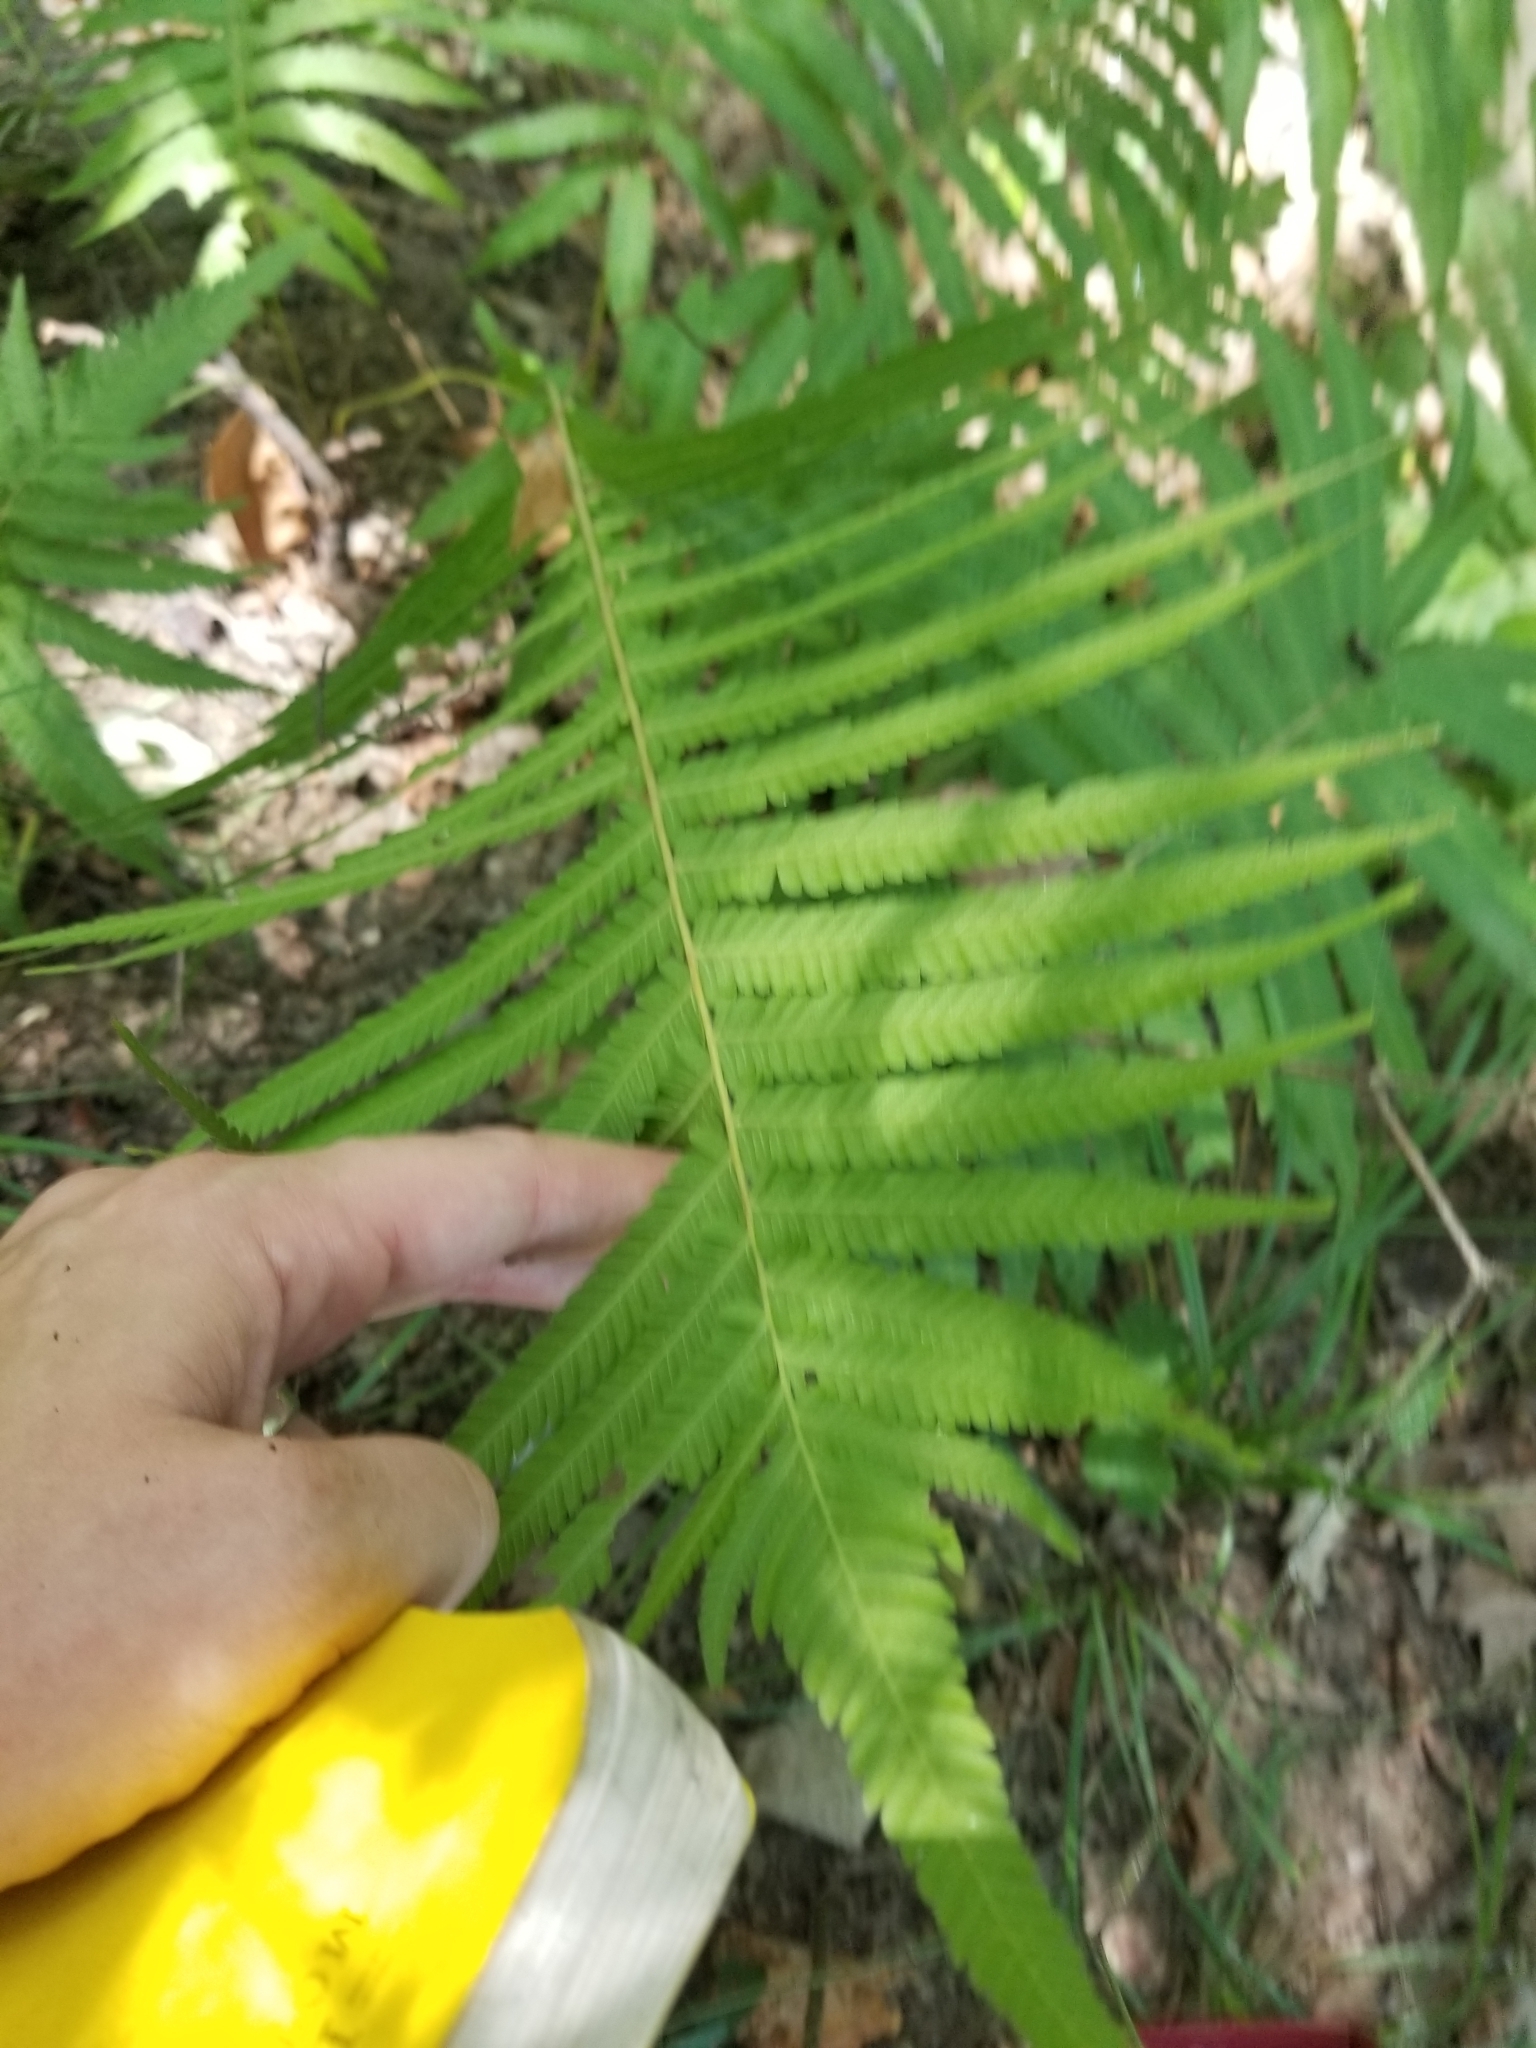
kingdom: Plantae
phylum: Tracheophyta
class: Polypodiopsida
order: Polypodiales
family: Thelypteridaceae
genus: Pelazoneuron
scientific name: Pelazoneuron ovatum
